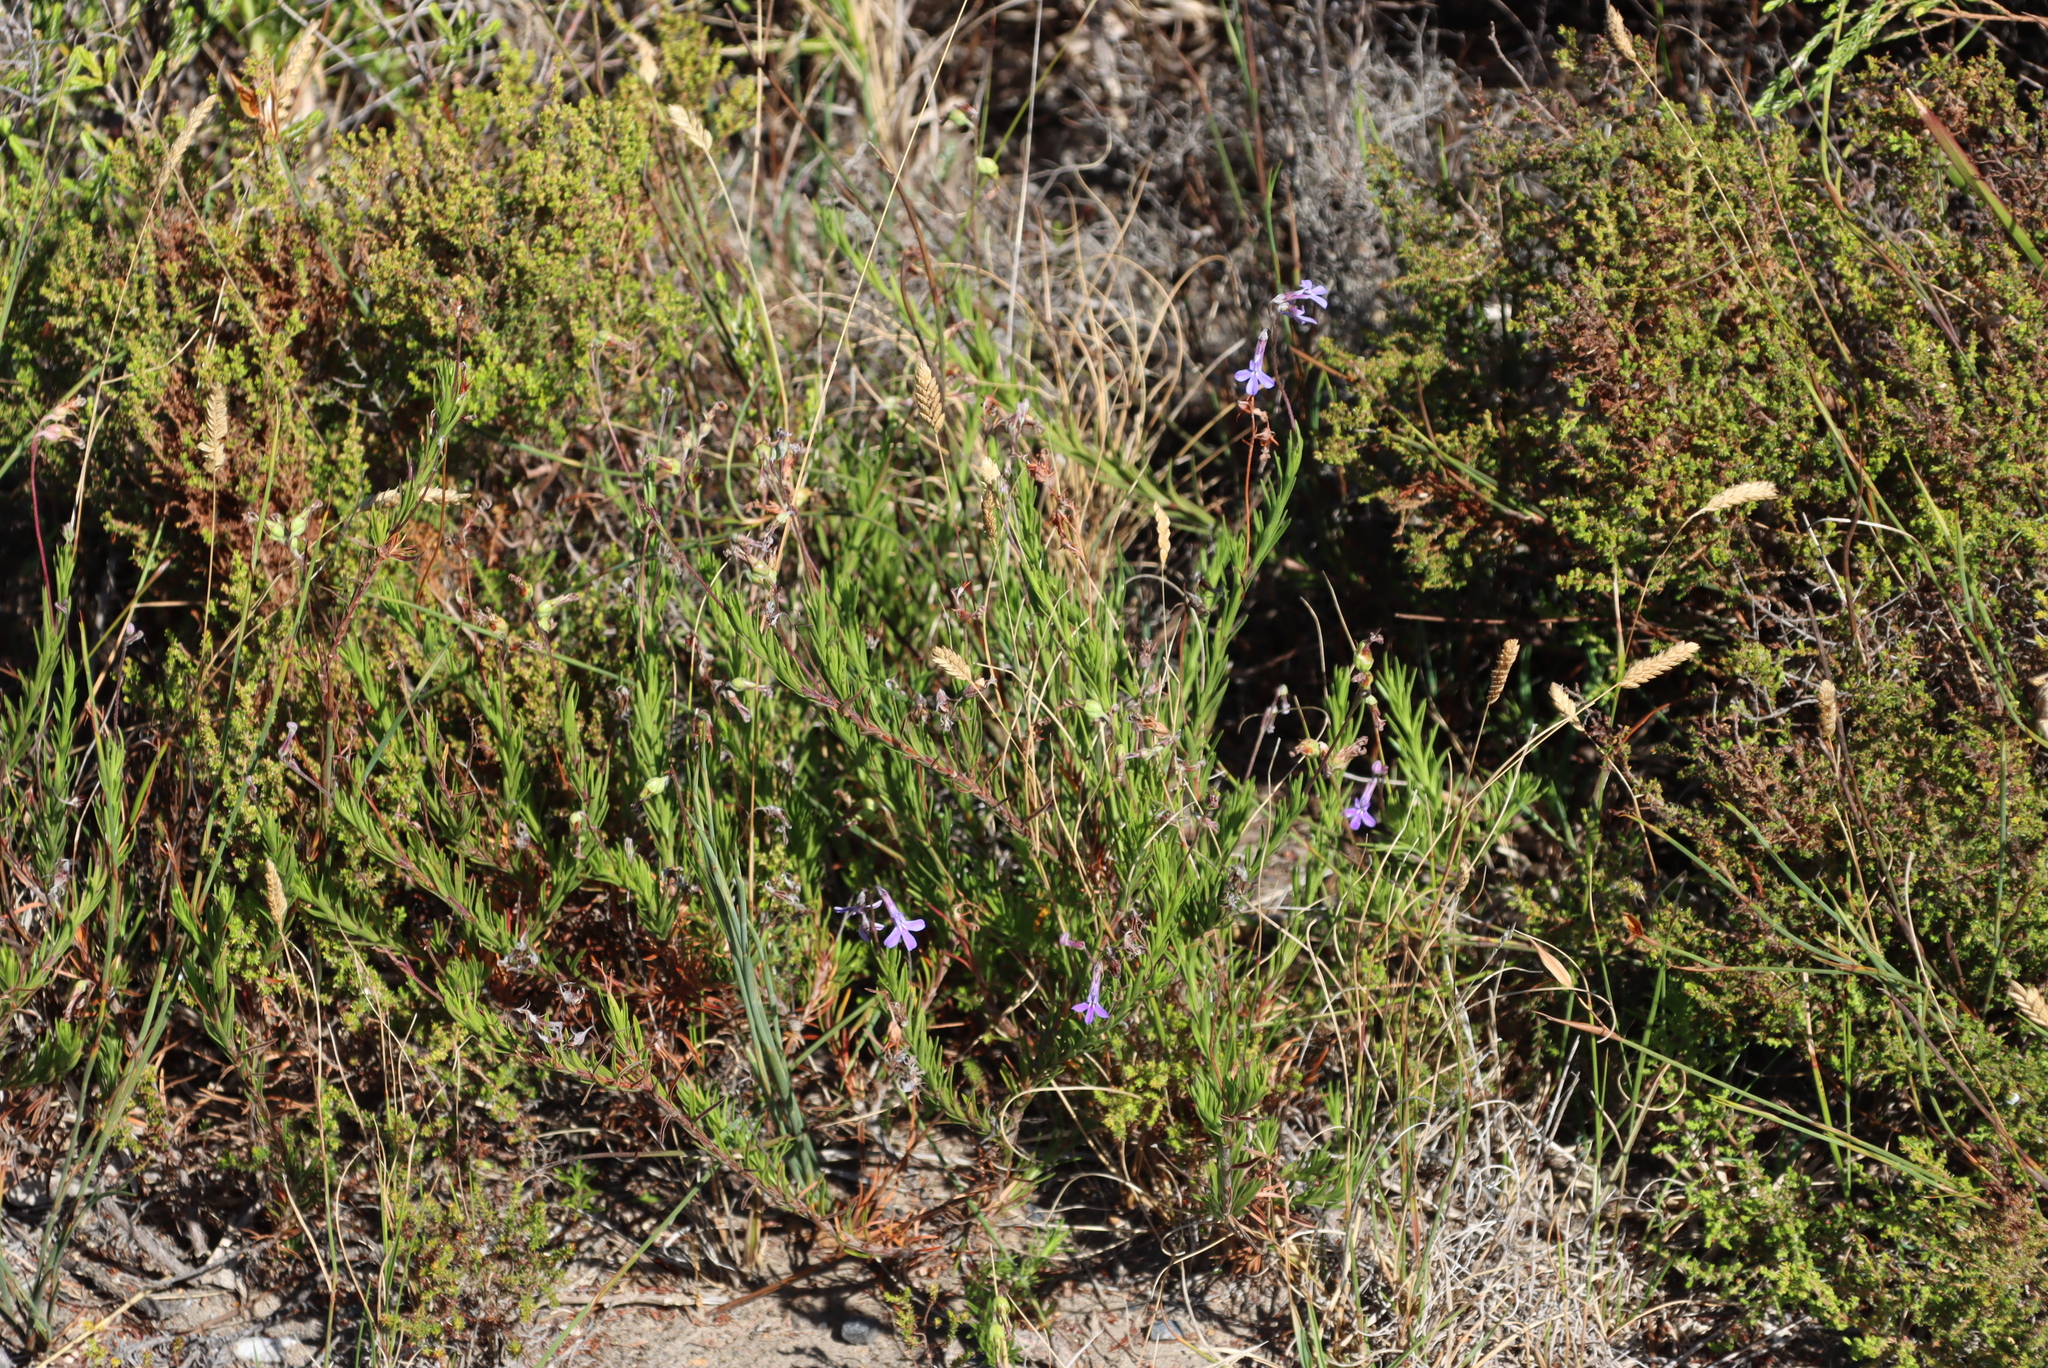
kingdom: Plantae
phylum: Tracheophyta
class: Magnoliopsida
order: Asterales
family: Campanulaceae
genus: Lobelia
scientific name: Lobelia pinifolia
